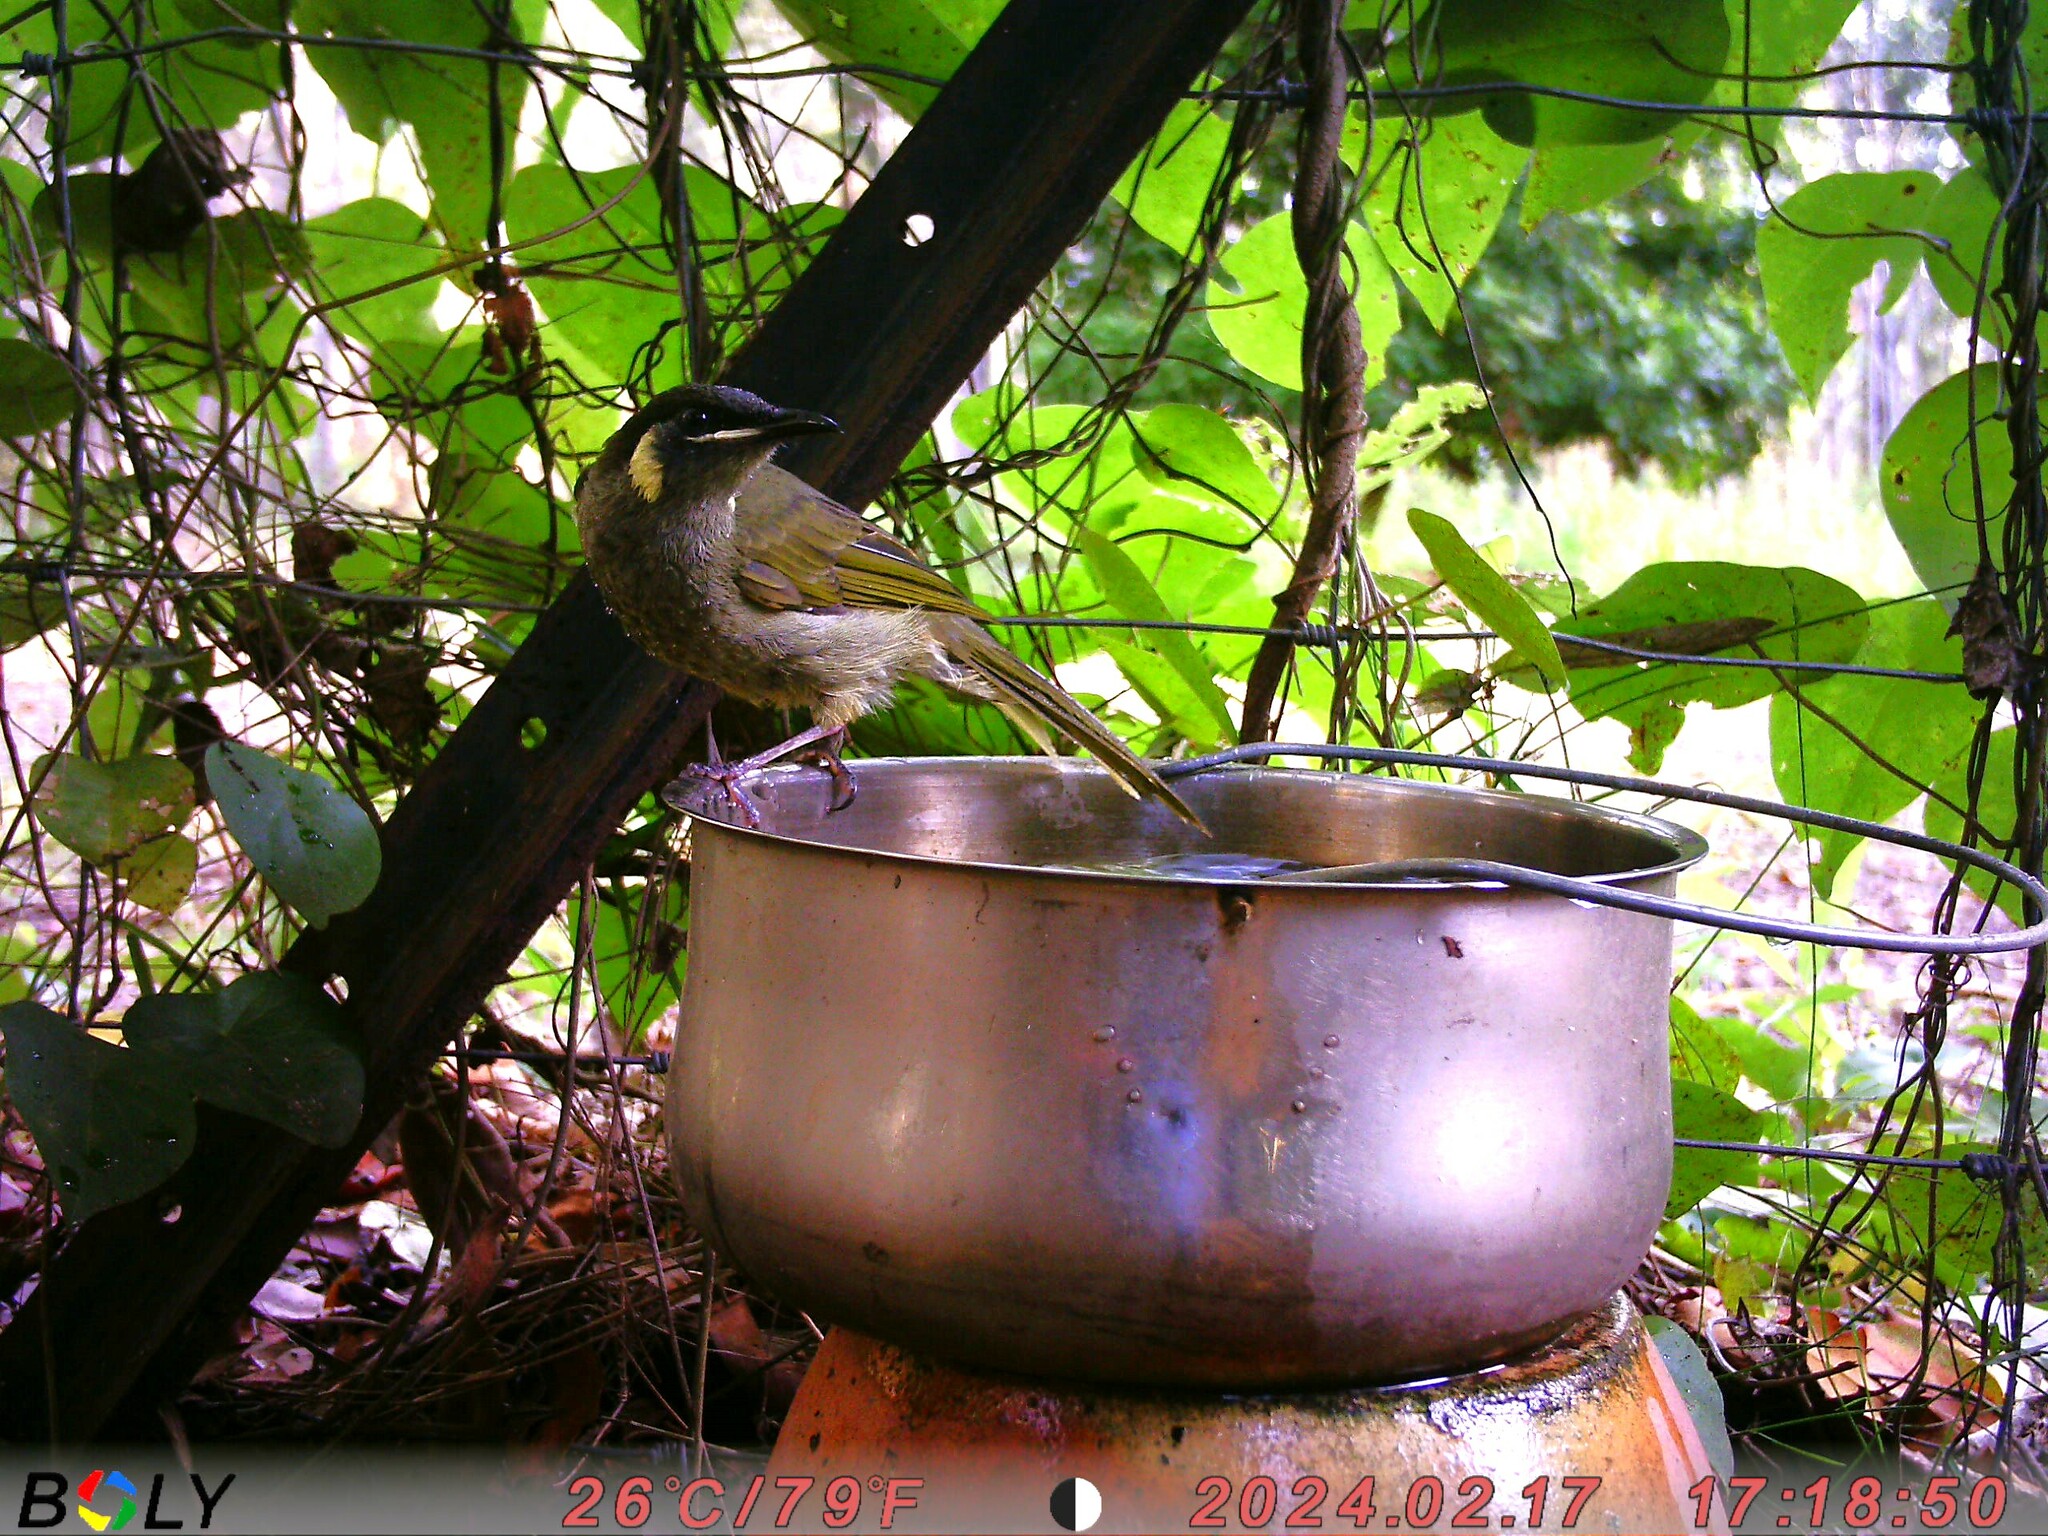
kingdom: Animalia
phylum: Chordata
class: Aves
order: Passeriformes
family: Meliphagidae
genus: Meliphaga
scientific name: Meliphaga lewinii
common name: Lewin's honeyeater
